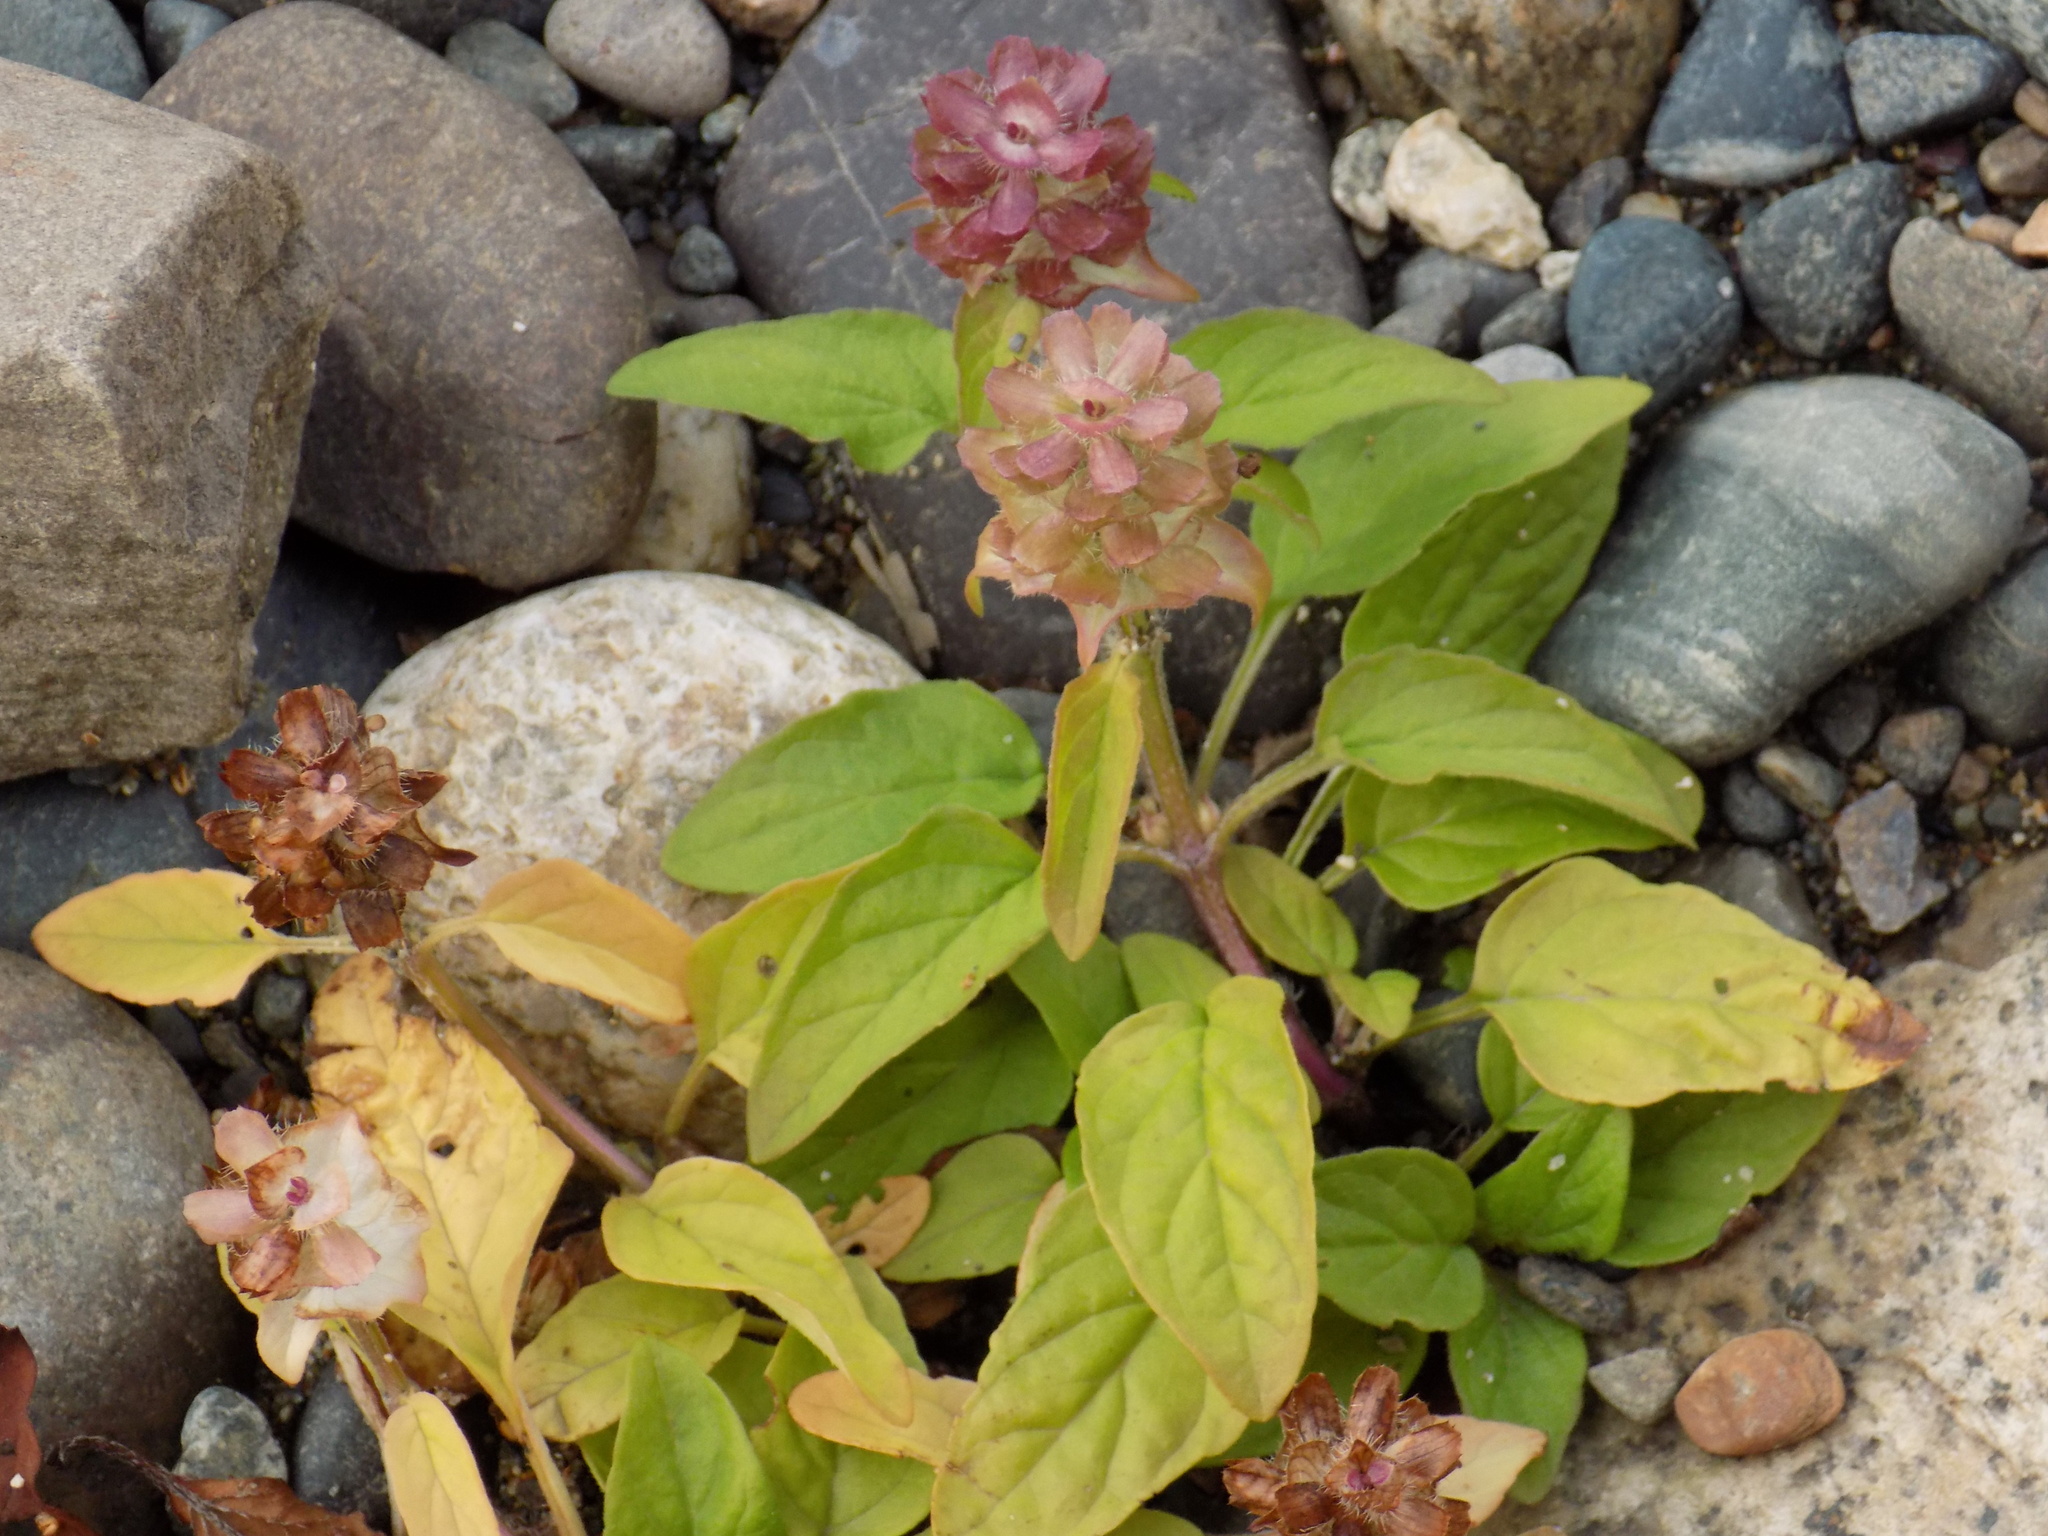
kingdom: Plantae
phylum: Tracheophyta
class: Magnoliopsida
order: Lamiales
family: Lamiaceae
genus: Prunella
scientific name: Prunella vulgaris
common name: Heal-all
